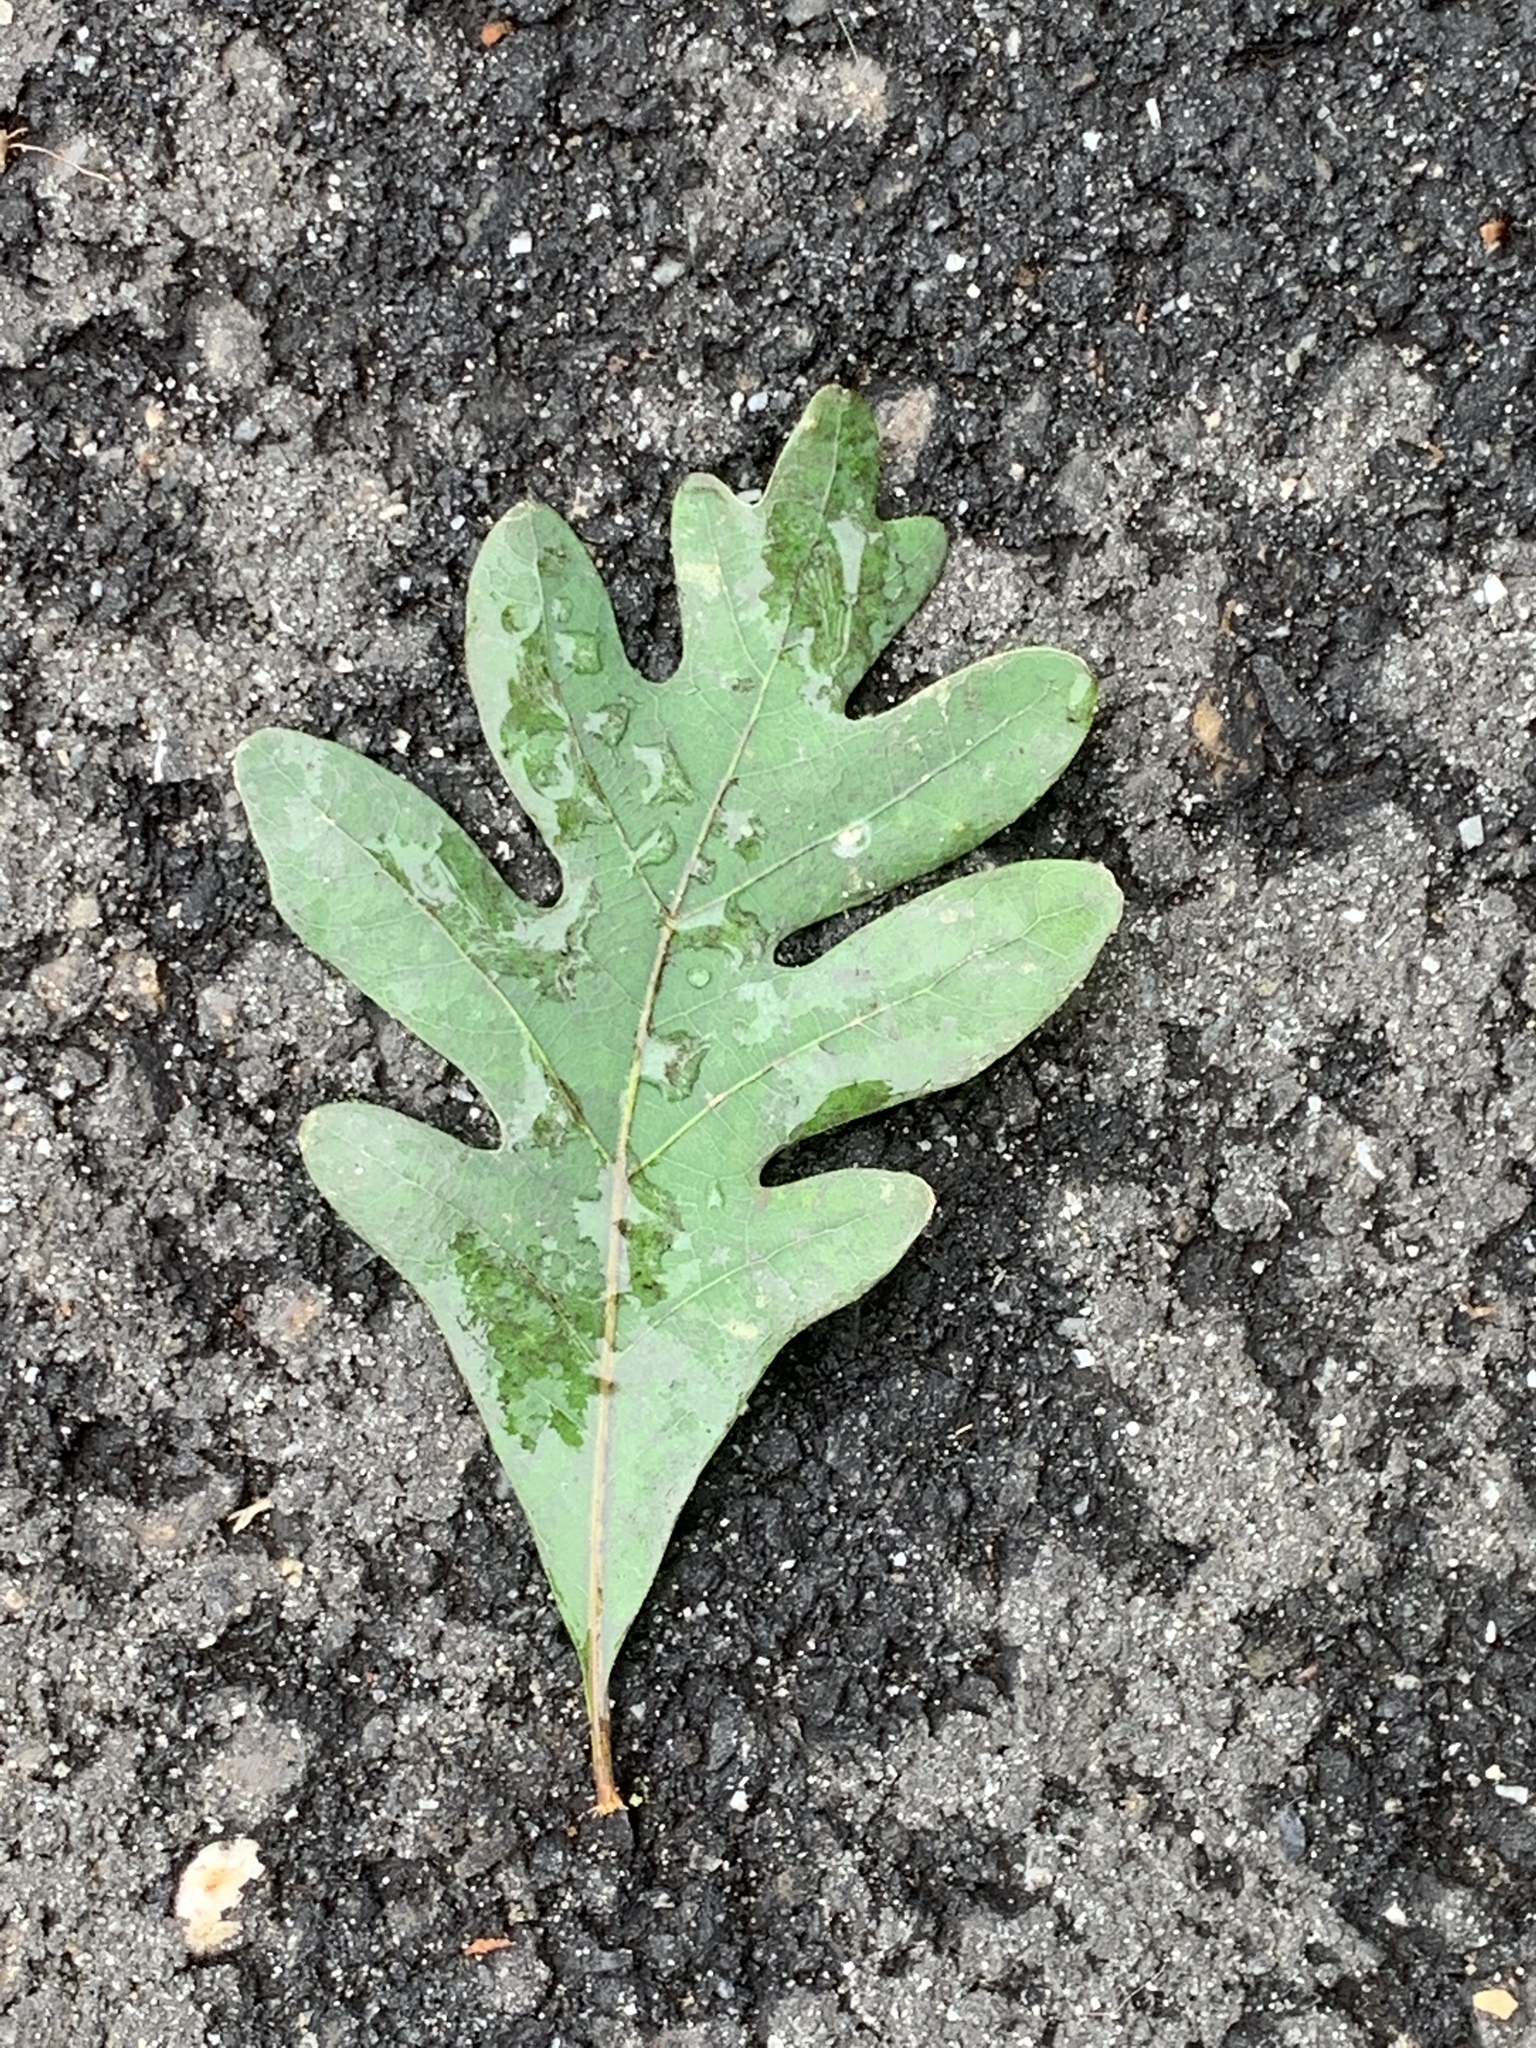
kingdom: Plantae
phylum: Tracheophyta
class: Magnoliopsida
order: Fagales
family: Fagaceae
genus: Quercus
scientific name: Quercus alba
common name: White oak
